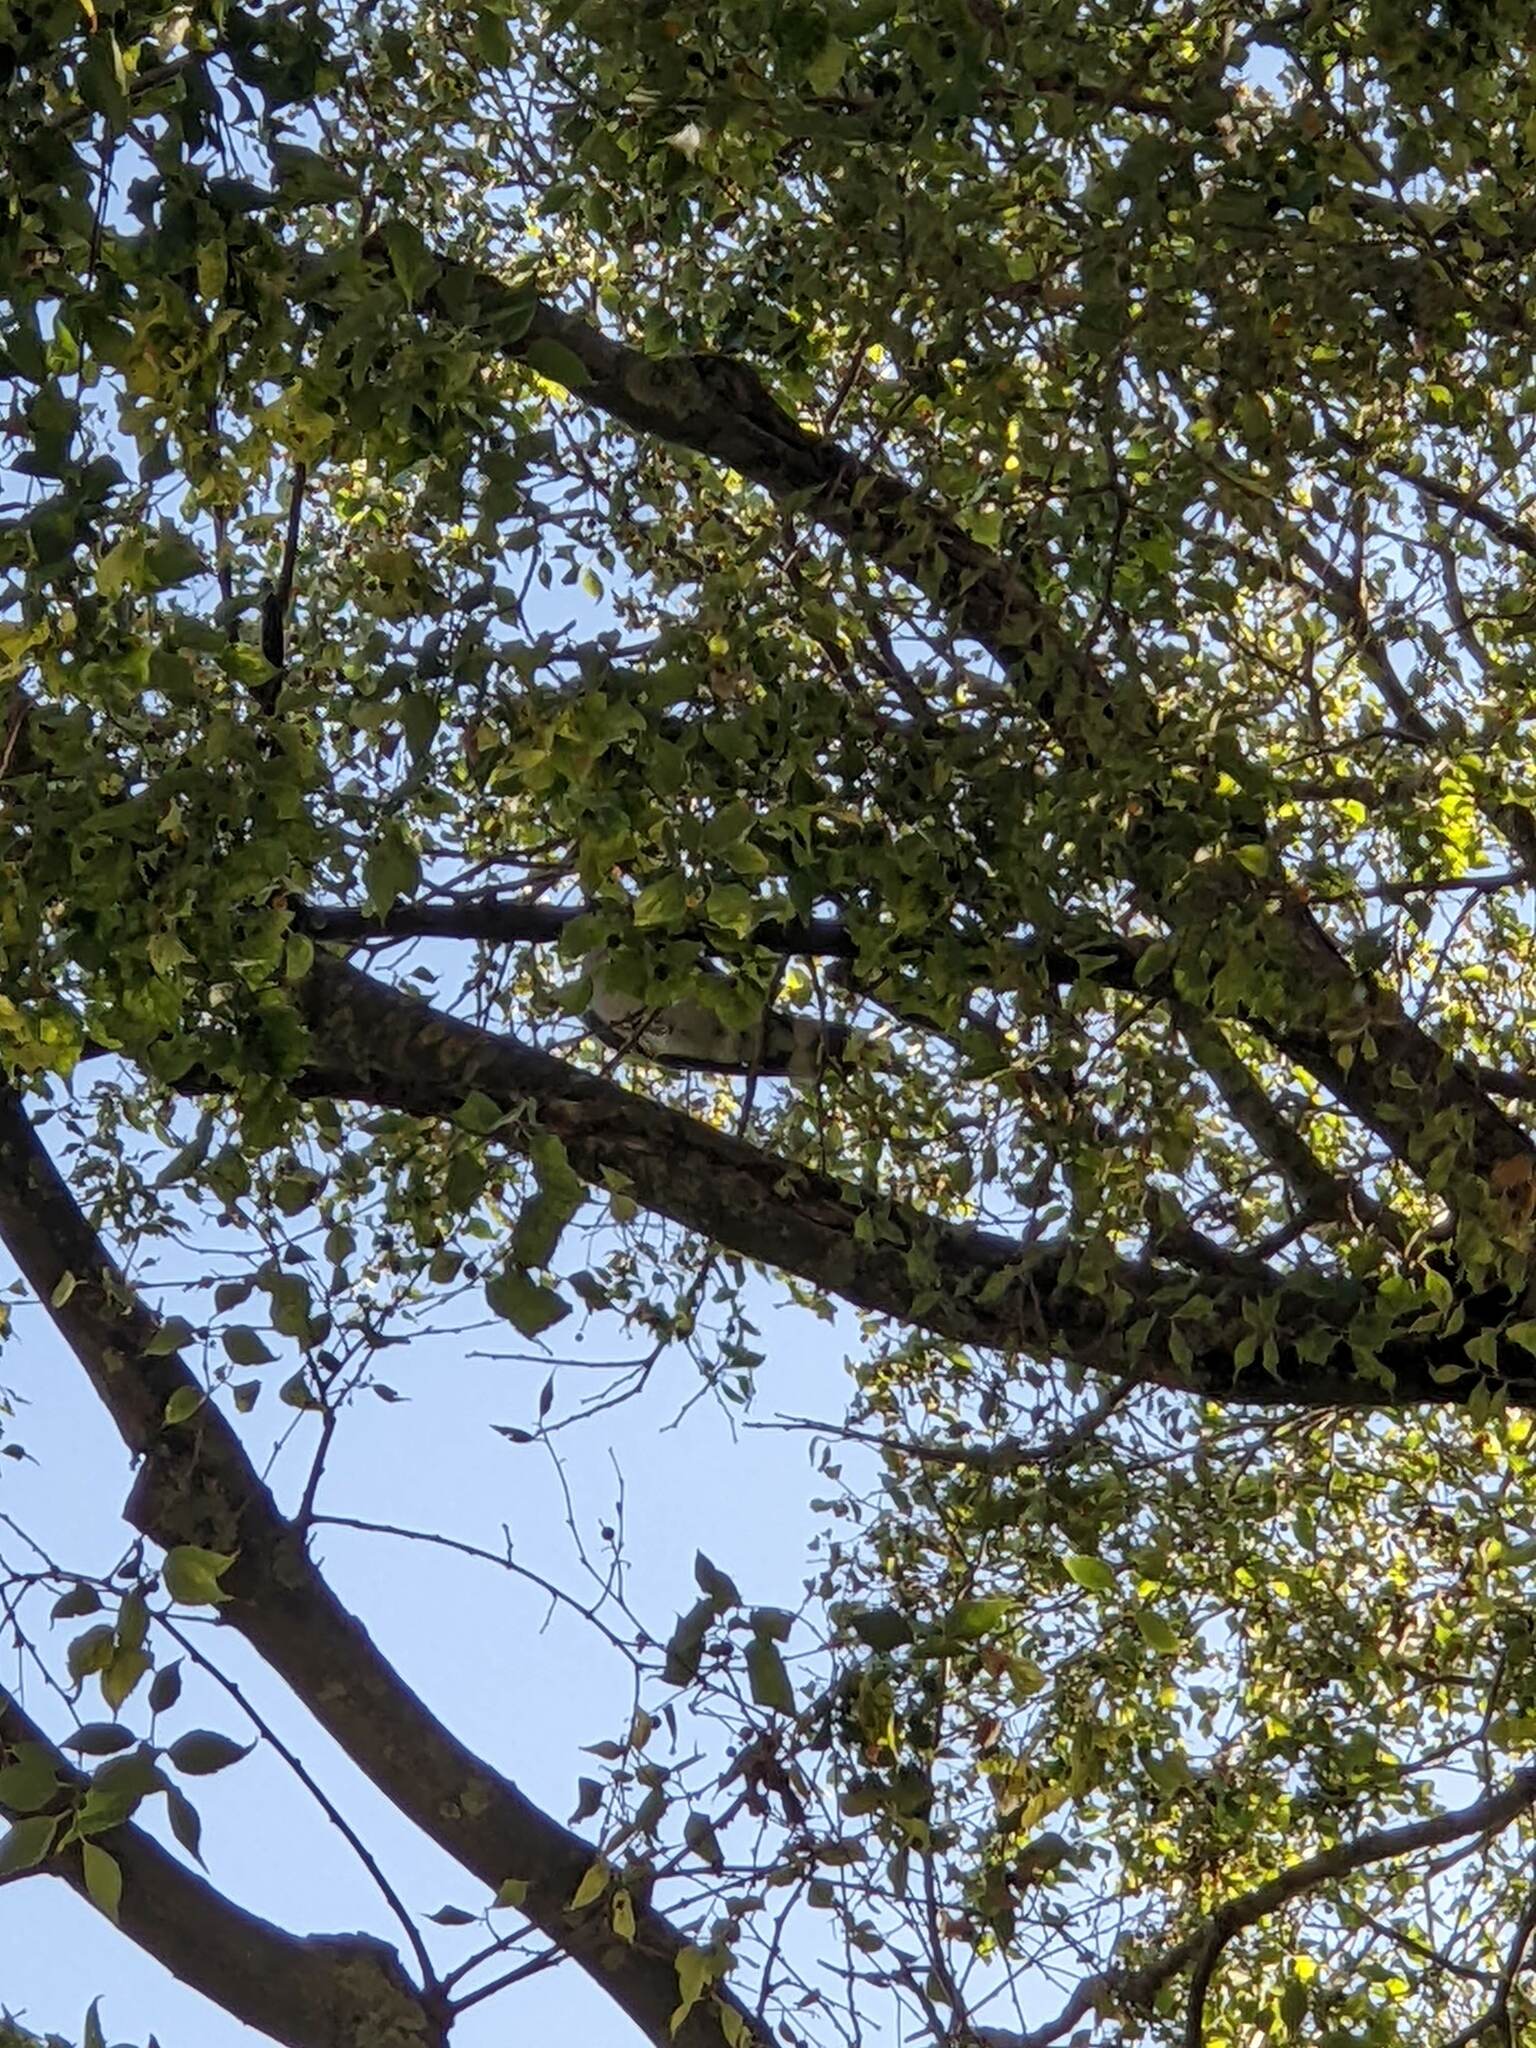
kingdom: Animalia
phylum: Chordata
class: Aves
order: Columbiformes
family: Columbidae
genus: Columba
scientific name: Columba palumbus
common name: Common wood pigeon
